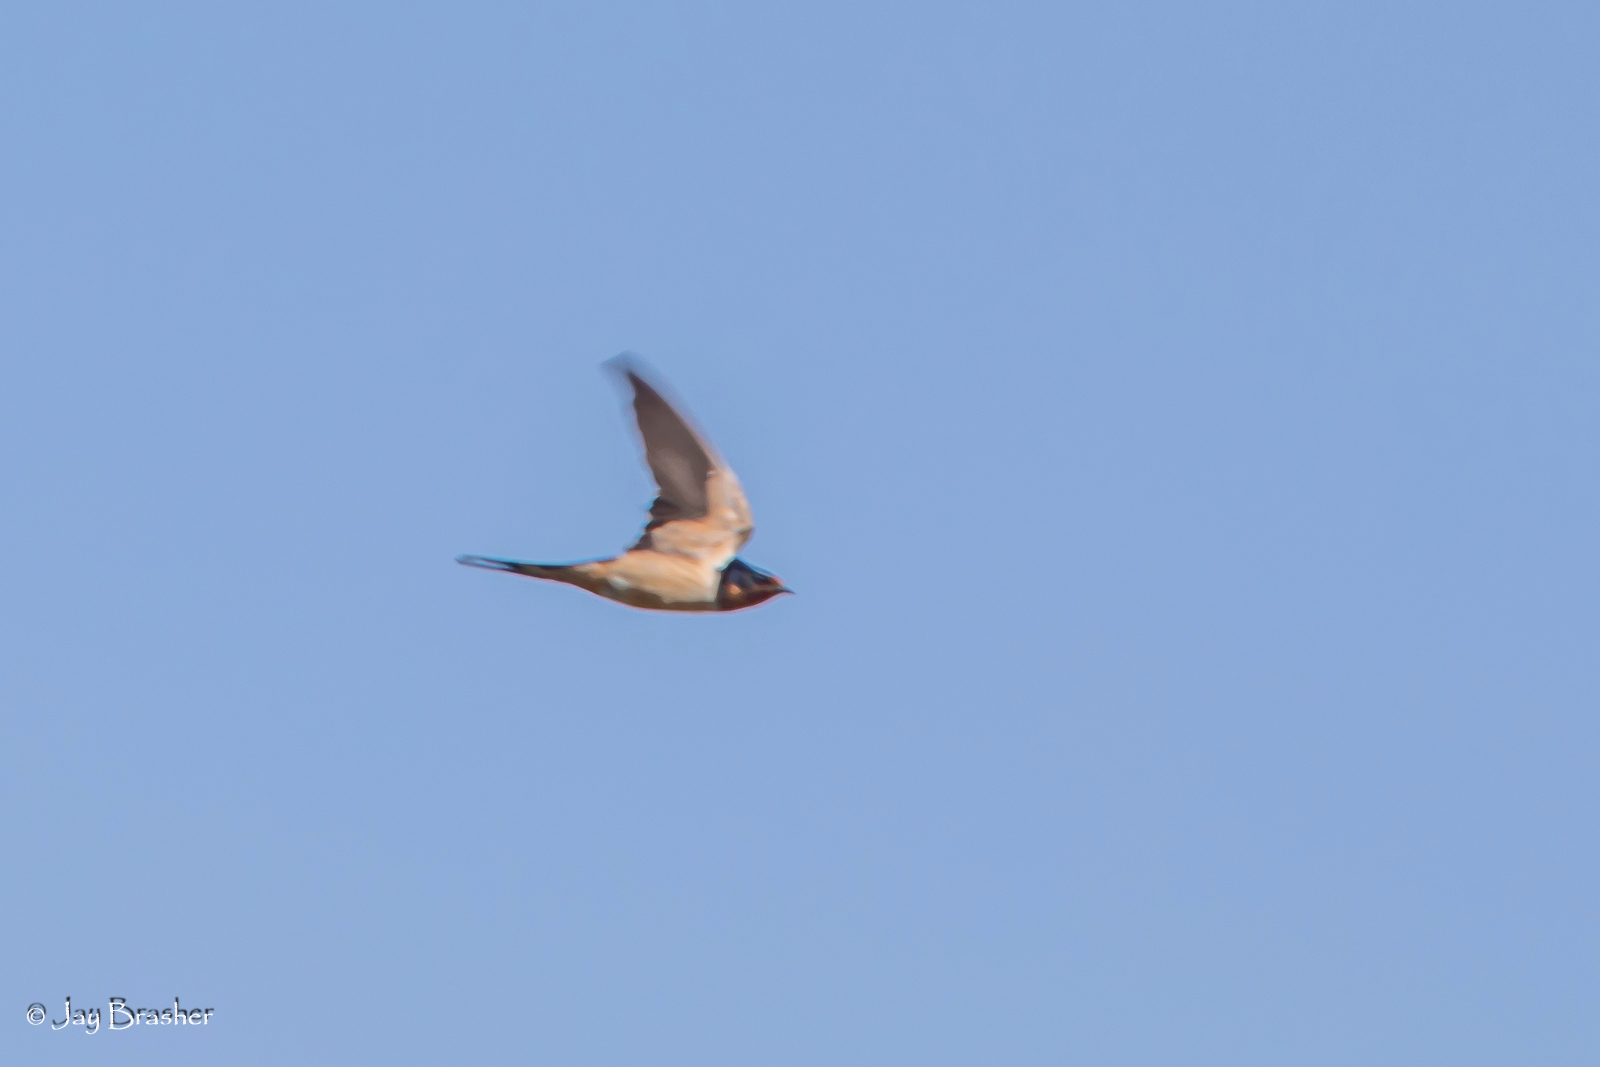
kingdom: Animalia
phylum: Chordata
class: Aves
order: Passeriformes
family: Hirundinidae
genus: Hirundo
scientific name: Hirundo rustica
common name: Barn swallow
